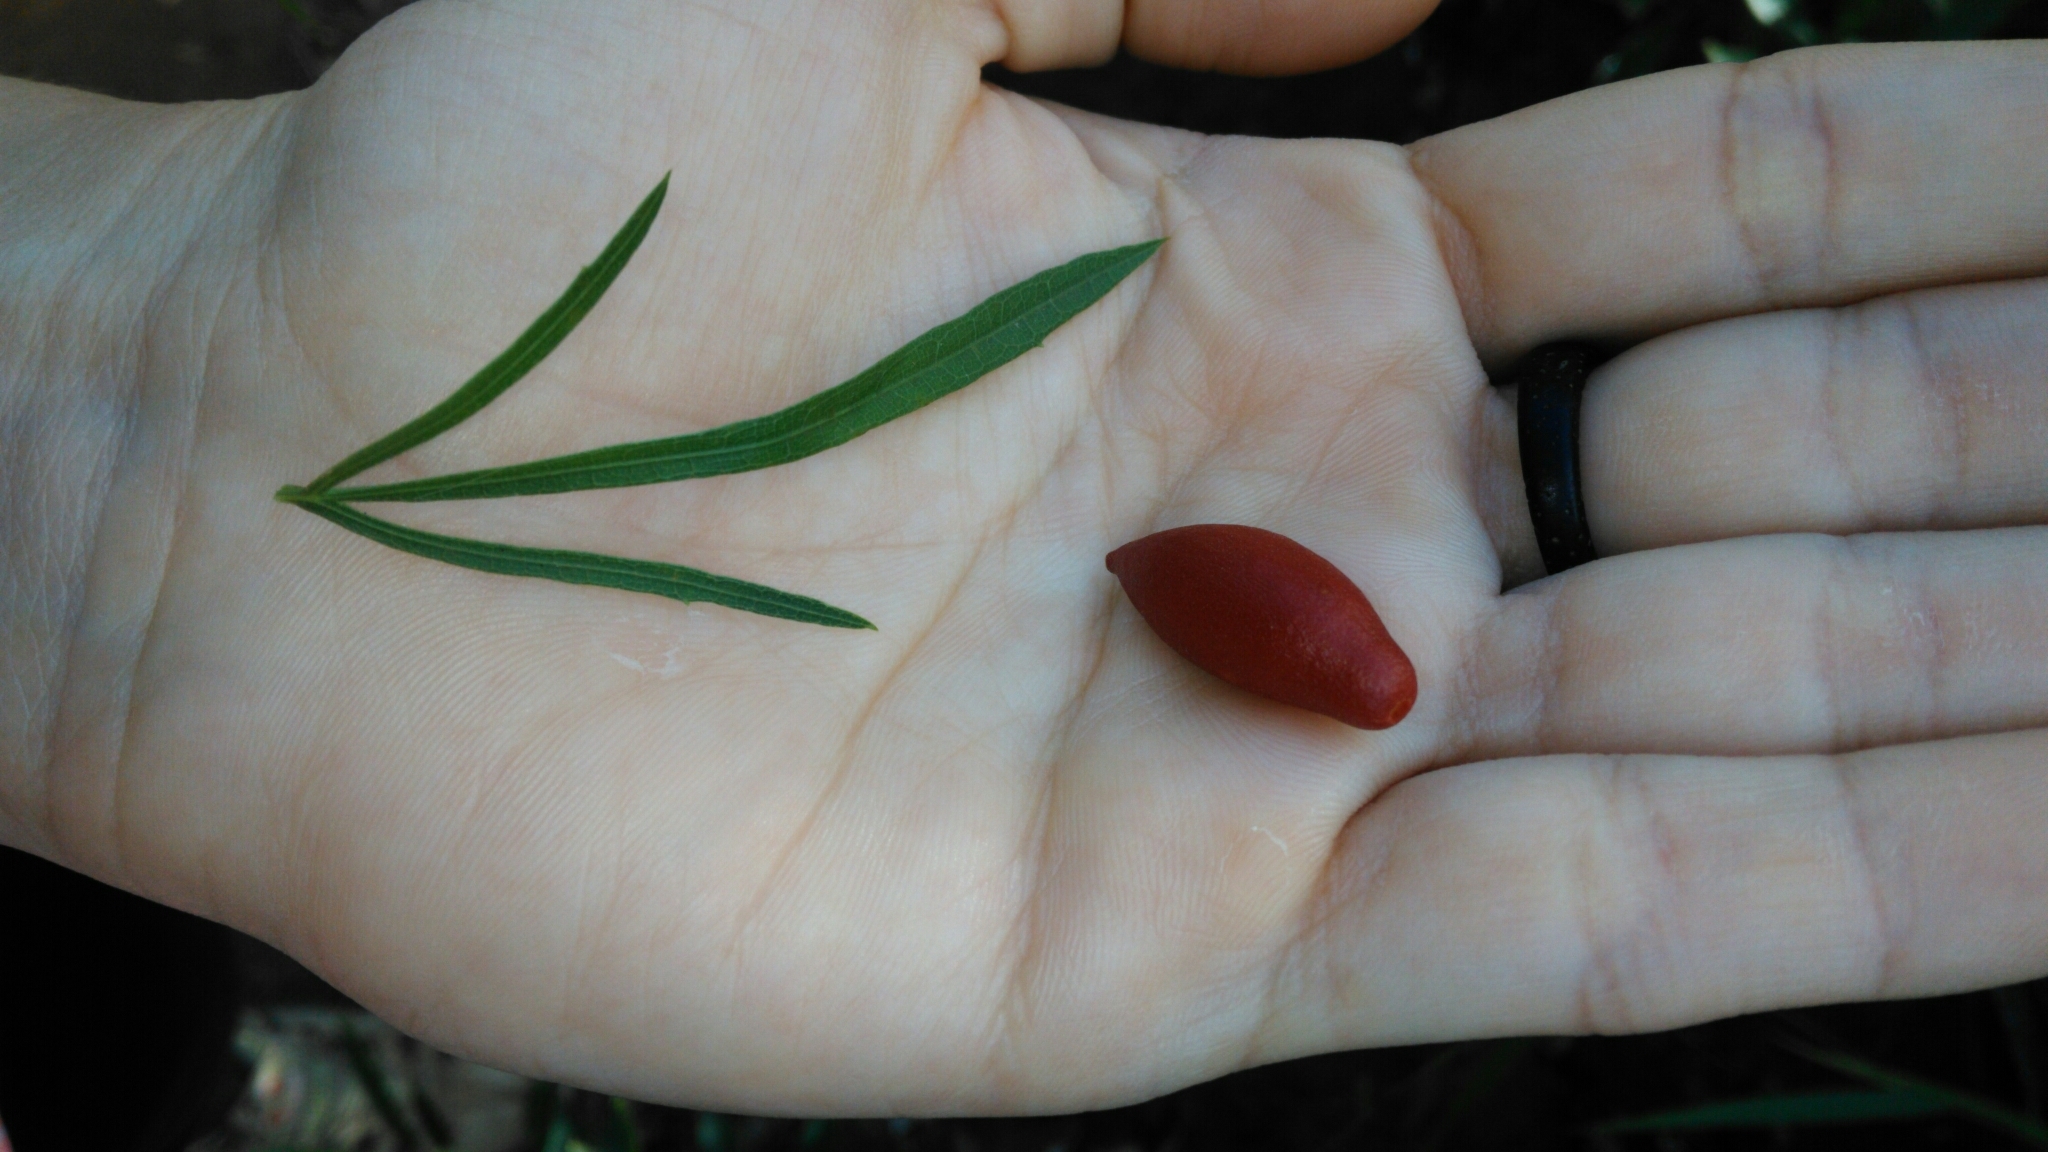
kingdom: Plantae
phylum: Tracheophyta
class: Magnoliopsida
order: Cucurbitales
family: Cucurbitaceae
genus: Cayaponia
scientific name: Cayaponia espelina
